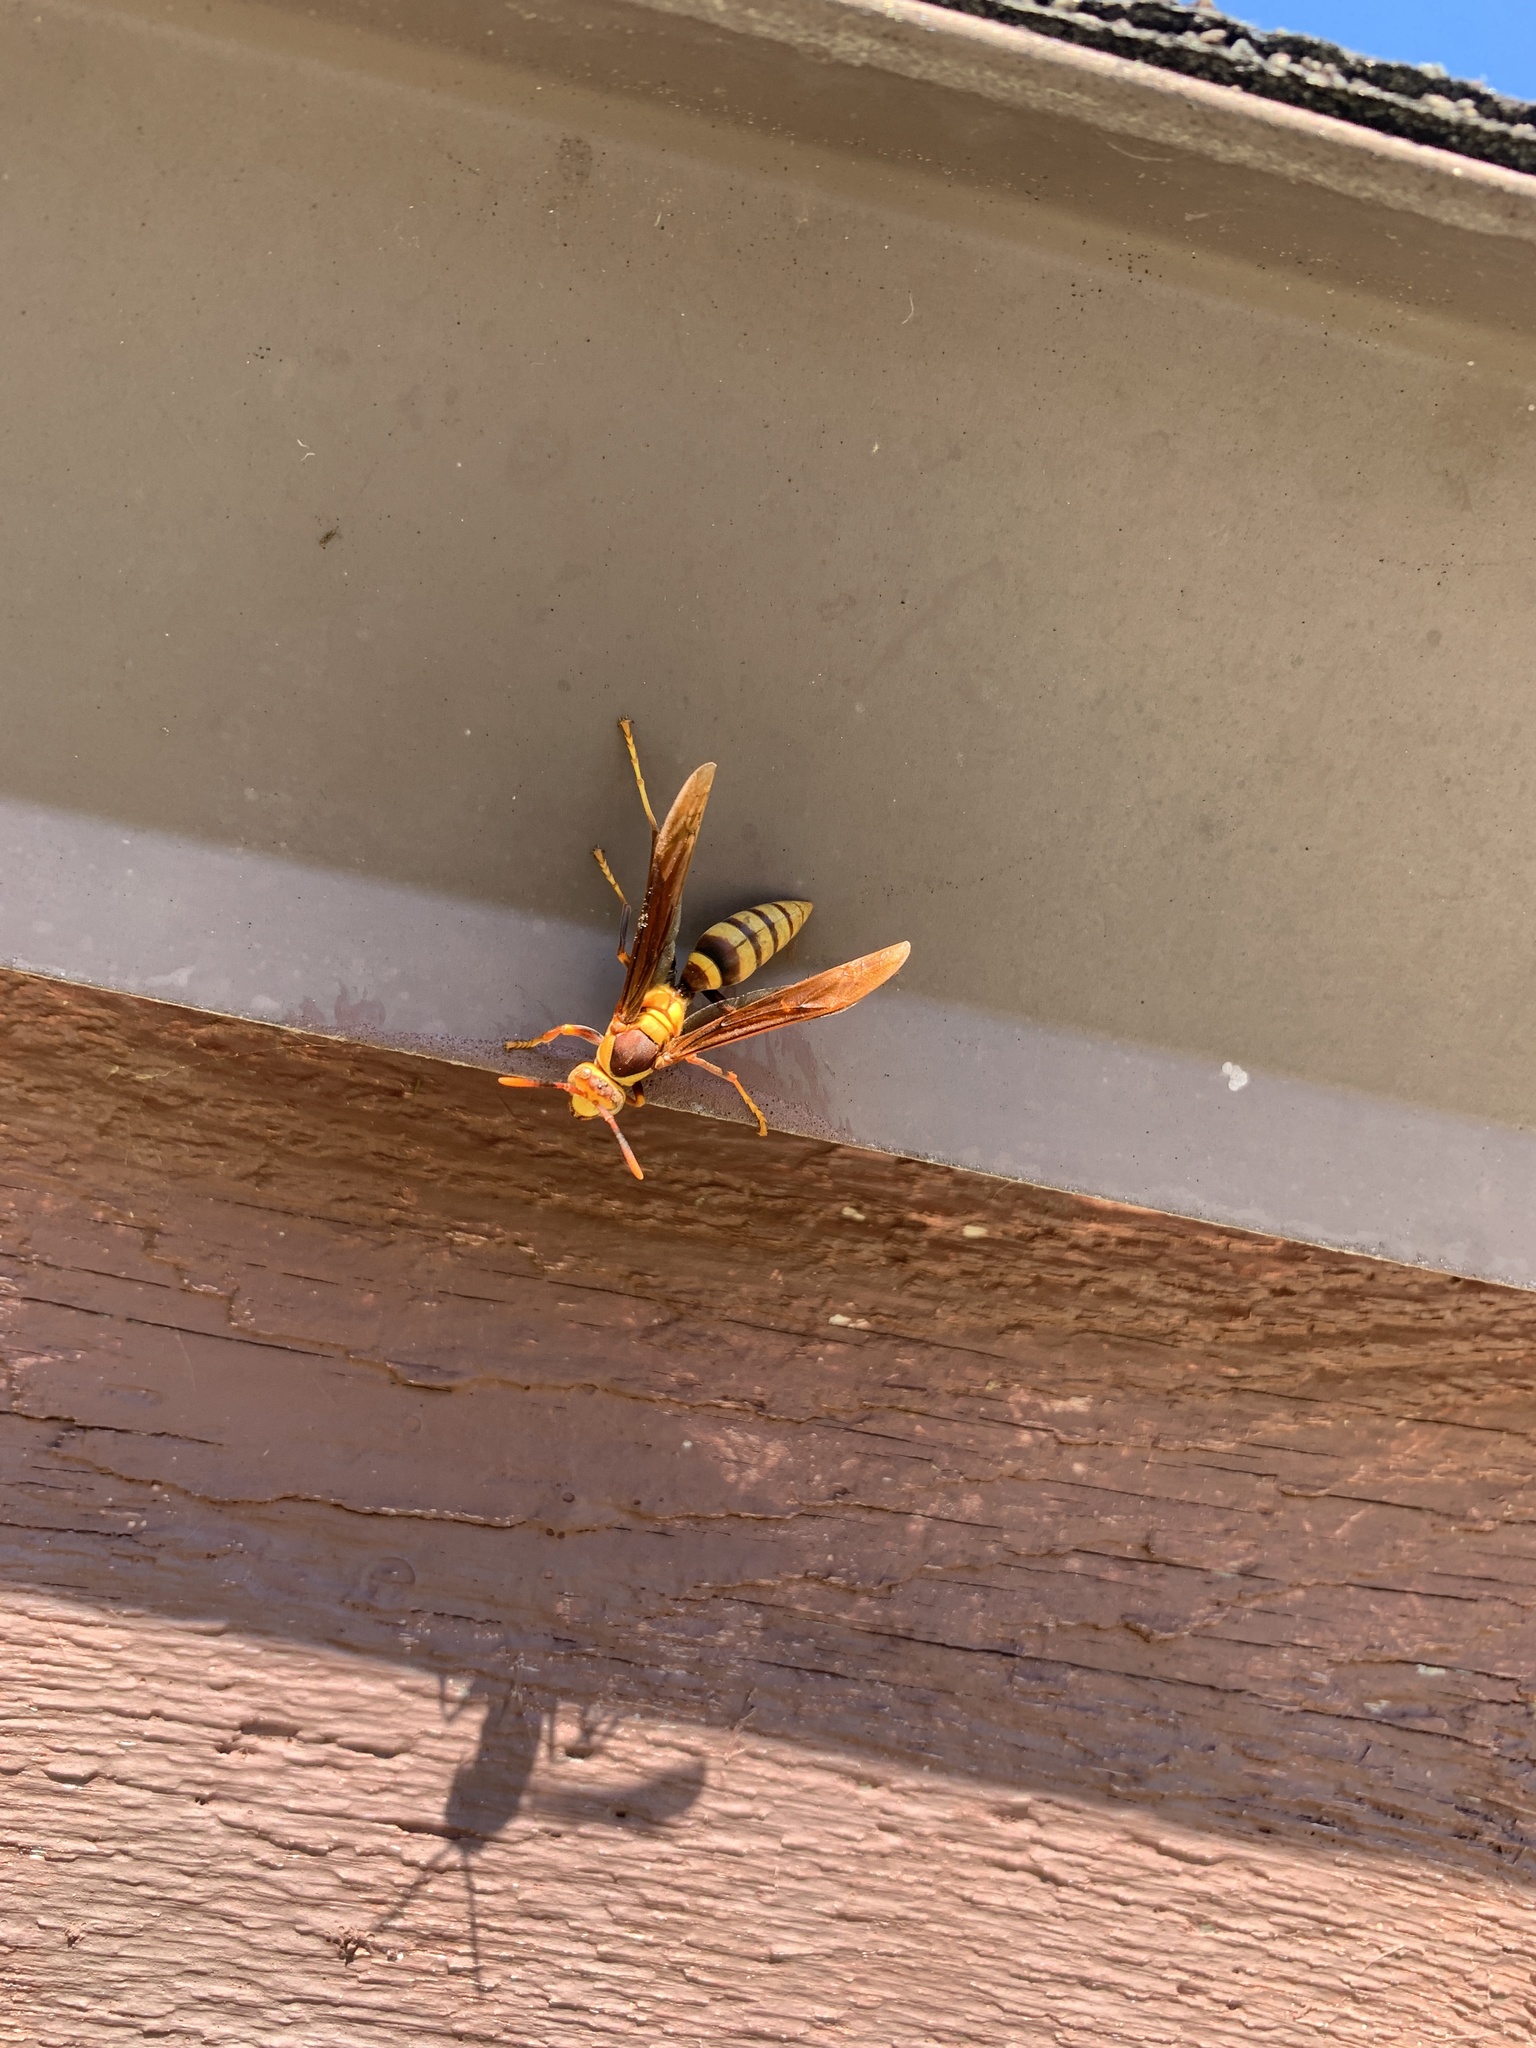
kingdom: Animalia
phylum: Arthropoda
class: Insecta
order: Hymenoptera
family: Eumenidae
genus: Polistes
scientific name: Polistes major
